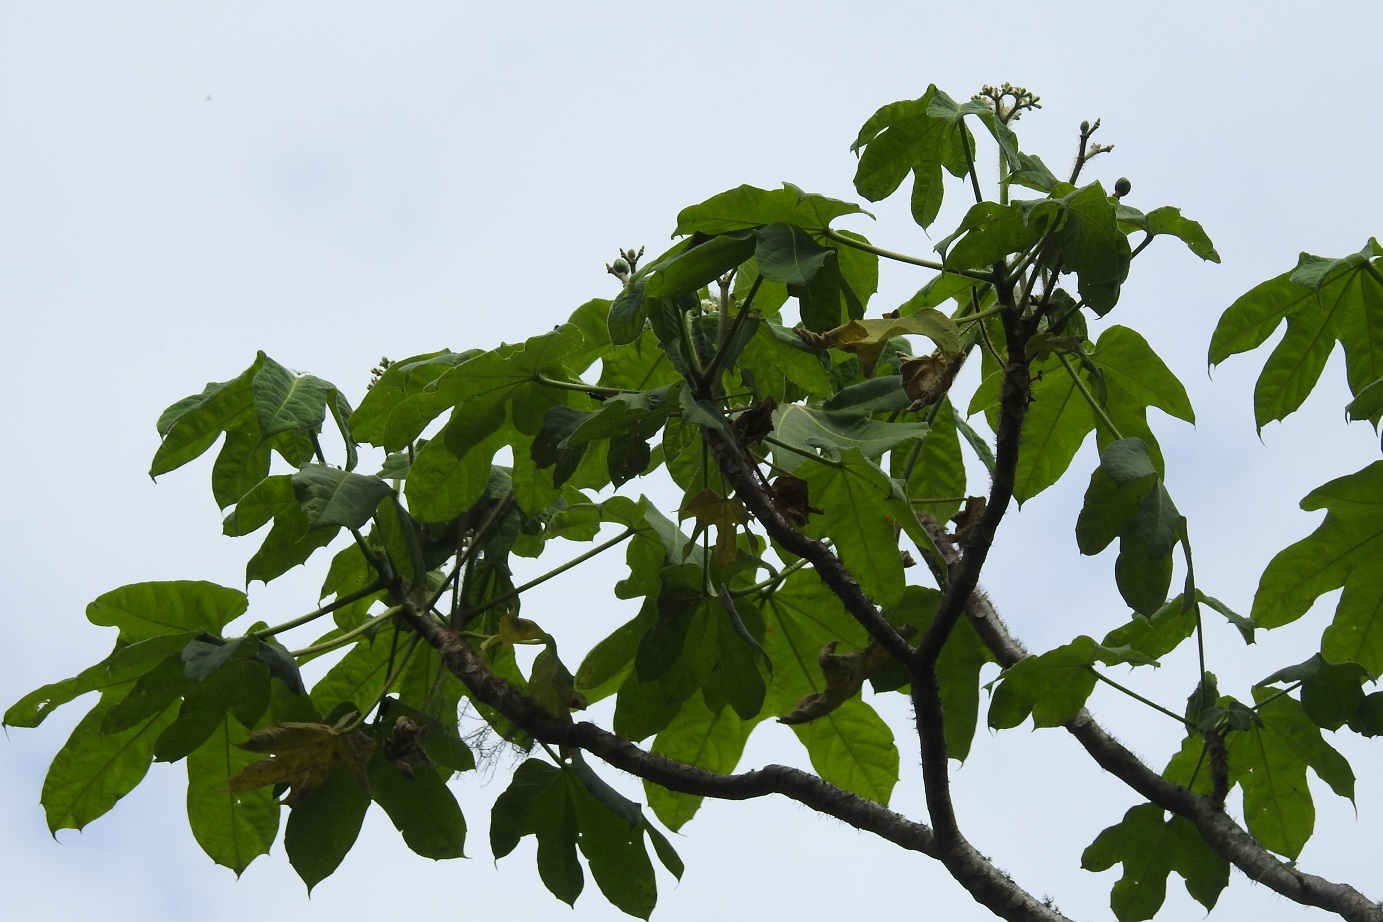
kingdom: Plantae
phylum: Tracheophyta
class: Magnoliopsida
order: Malpighiales
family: Euphorbiaceae
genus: Cnidoscolus
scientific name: Cnidoscolus multilobus
